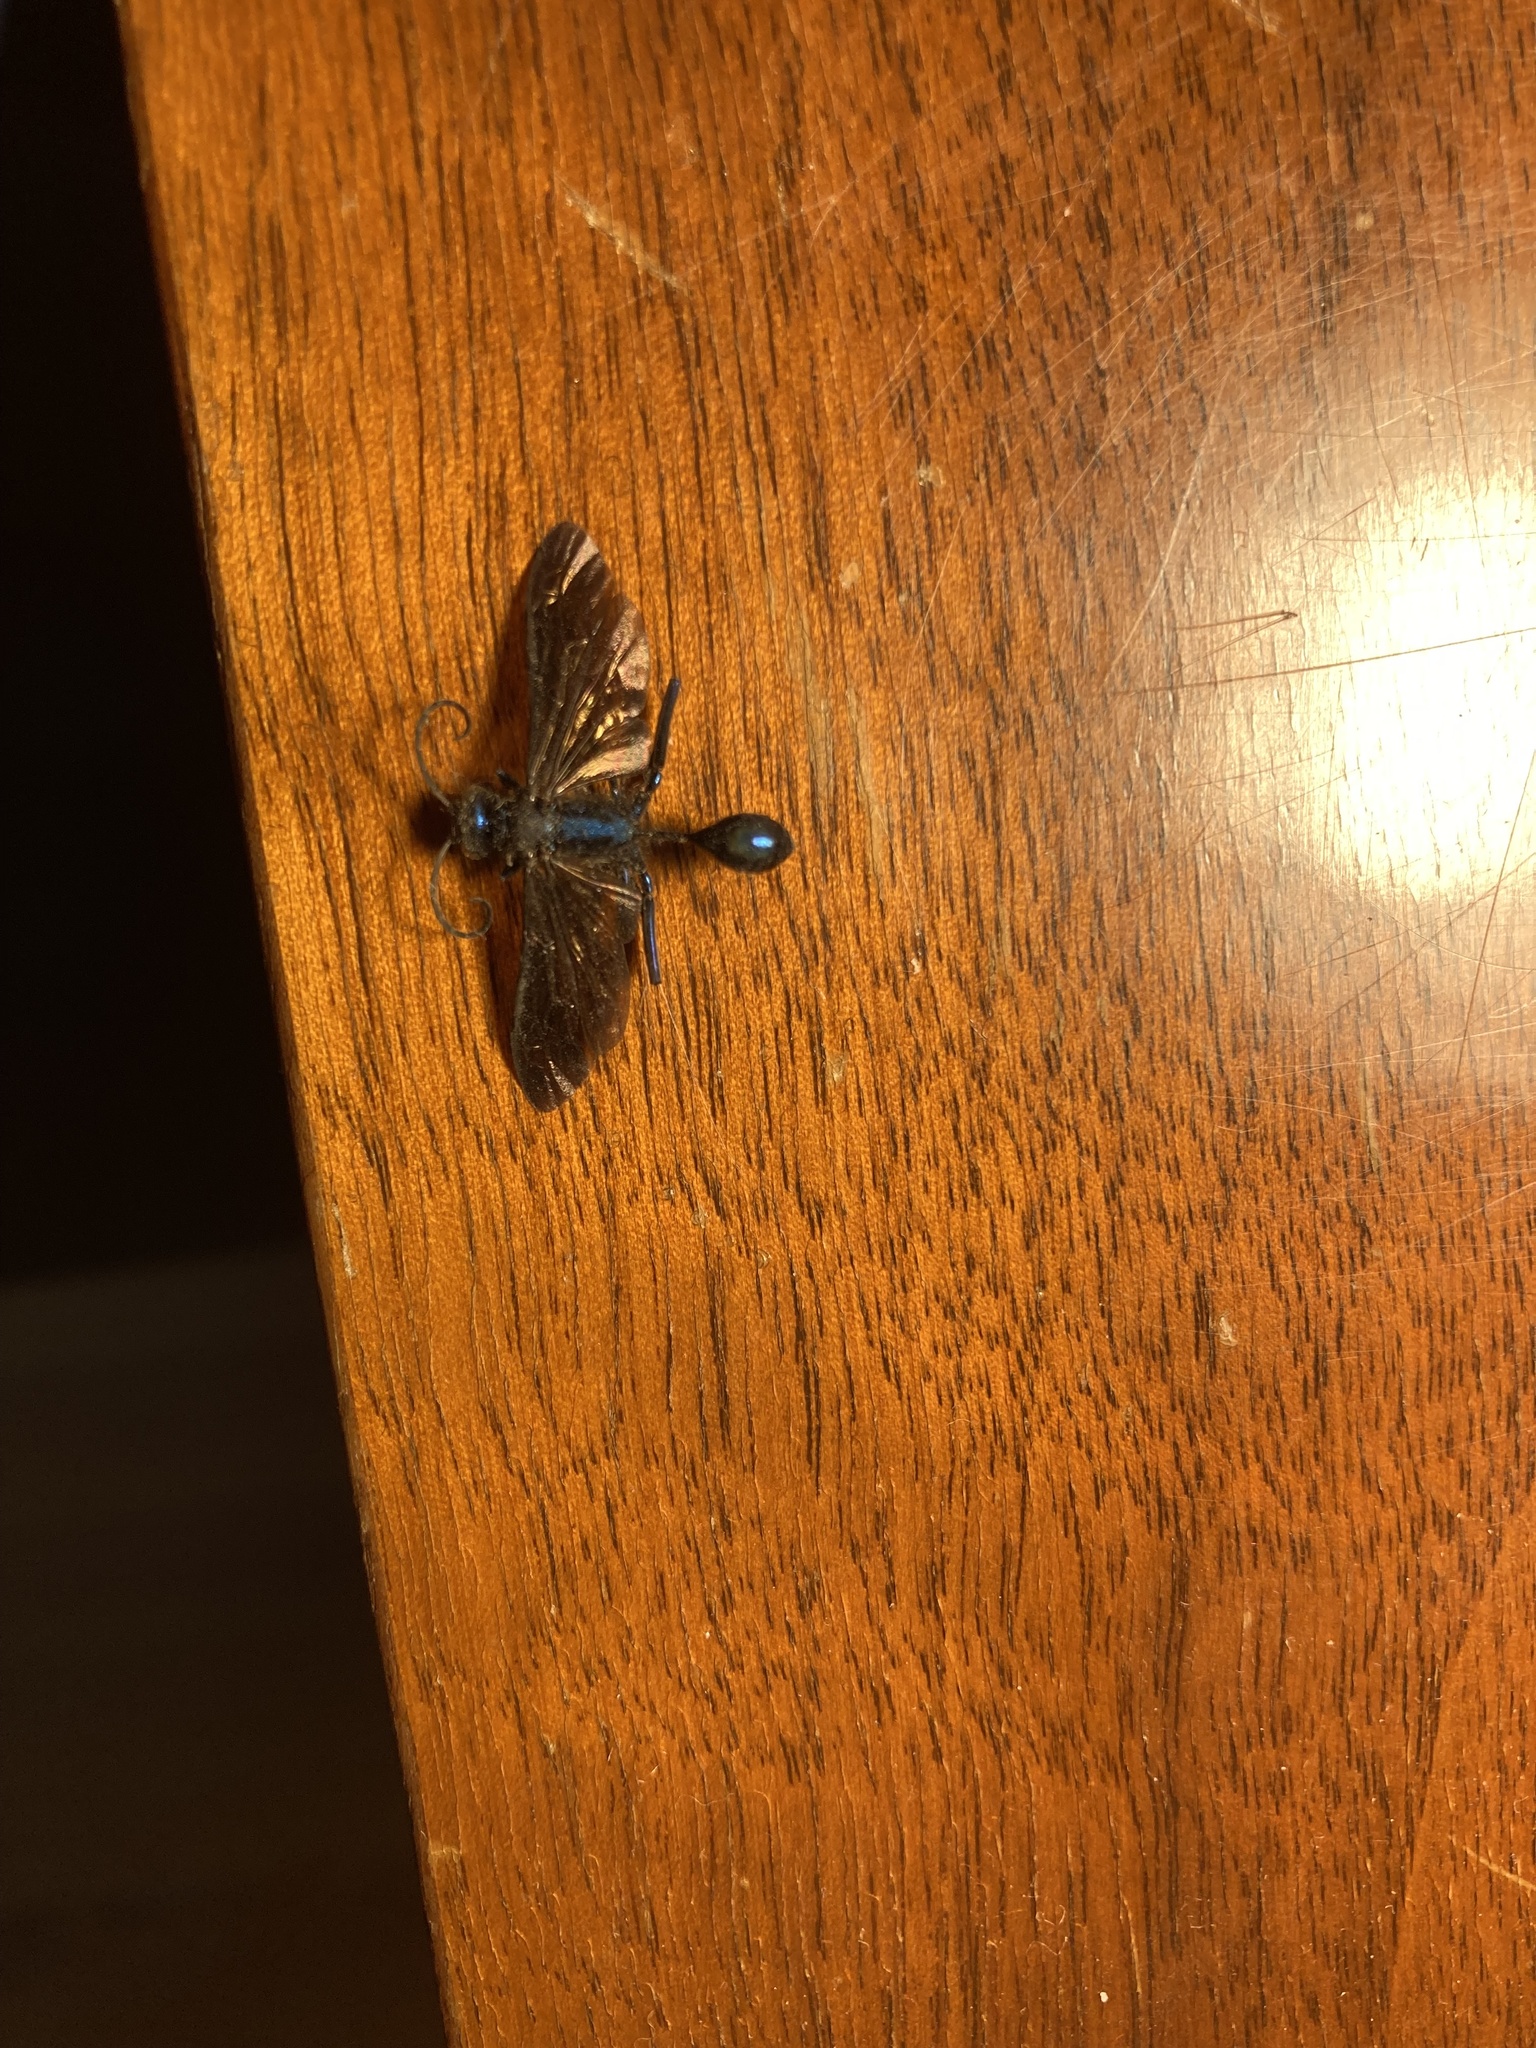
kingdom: Animalia
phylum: Arthropoda
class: Insecta
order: Hymenoptera
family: Sphecidae
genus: Chalybion
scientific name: Chalybion californicum
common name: Mud dauber
